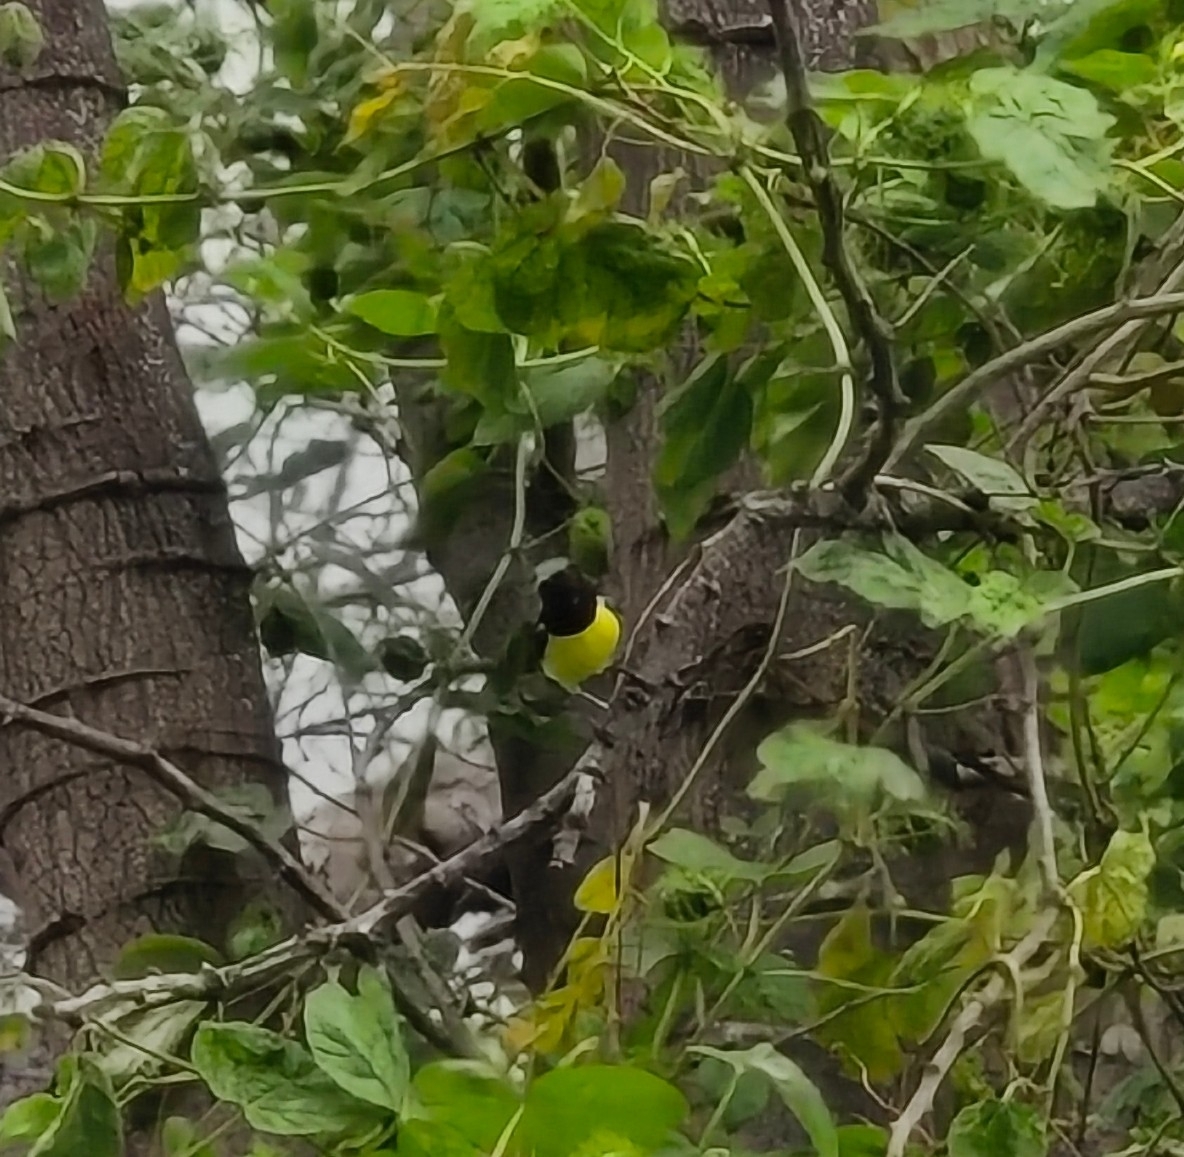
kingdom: Animalia
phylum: Chordata
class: Aves
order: Passeriformes
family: Nectariniidae
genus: Leptocoma
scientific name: Leptocoma zeylonica
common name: Purple-rumped sunbird
